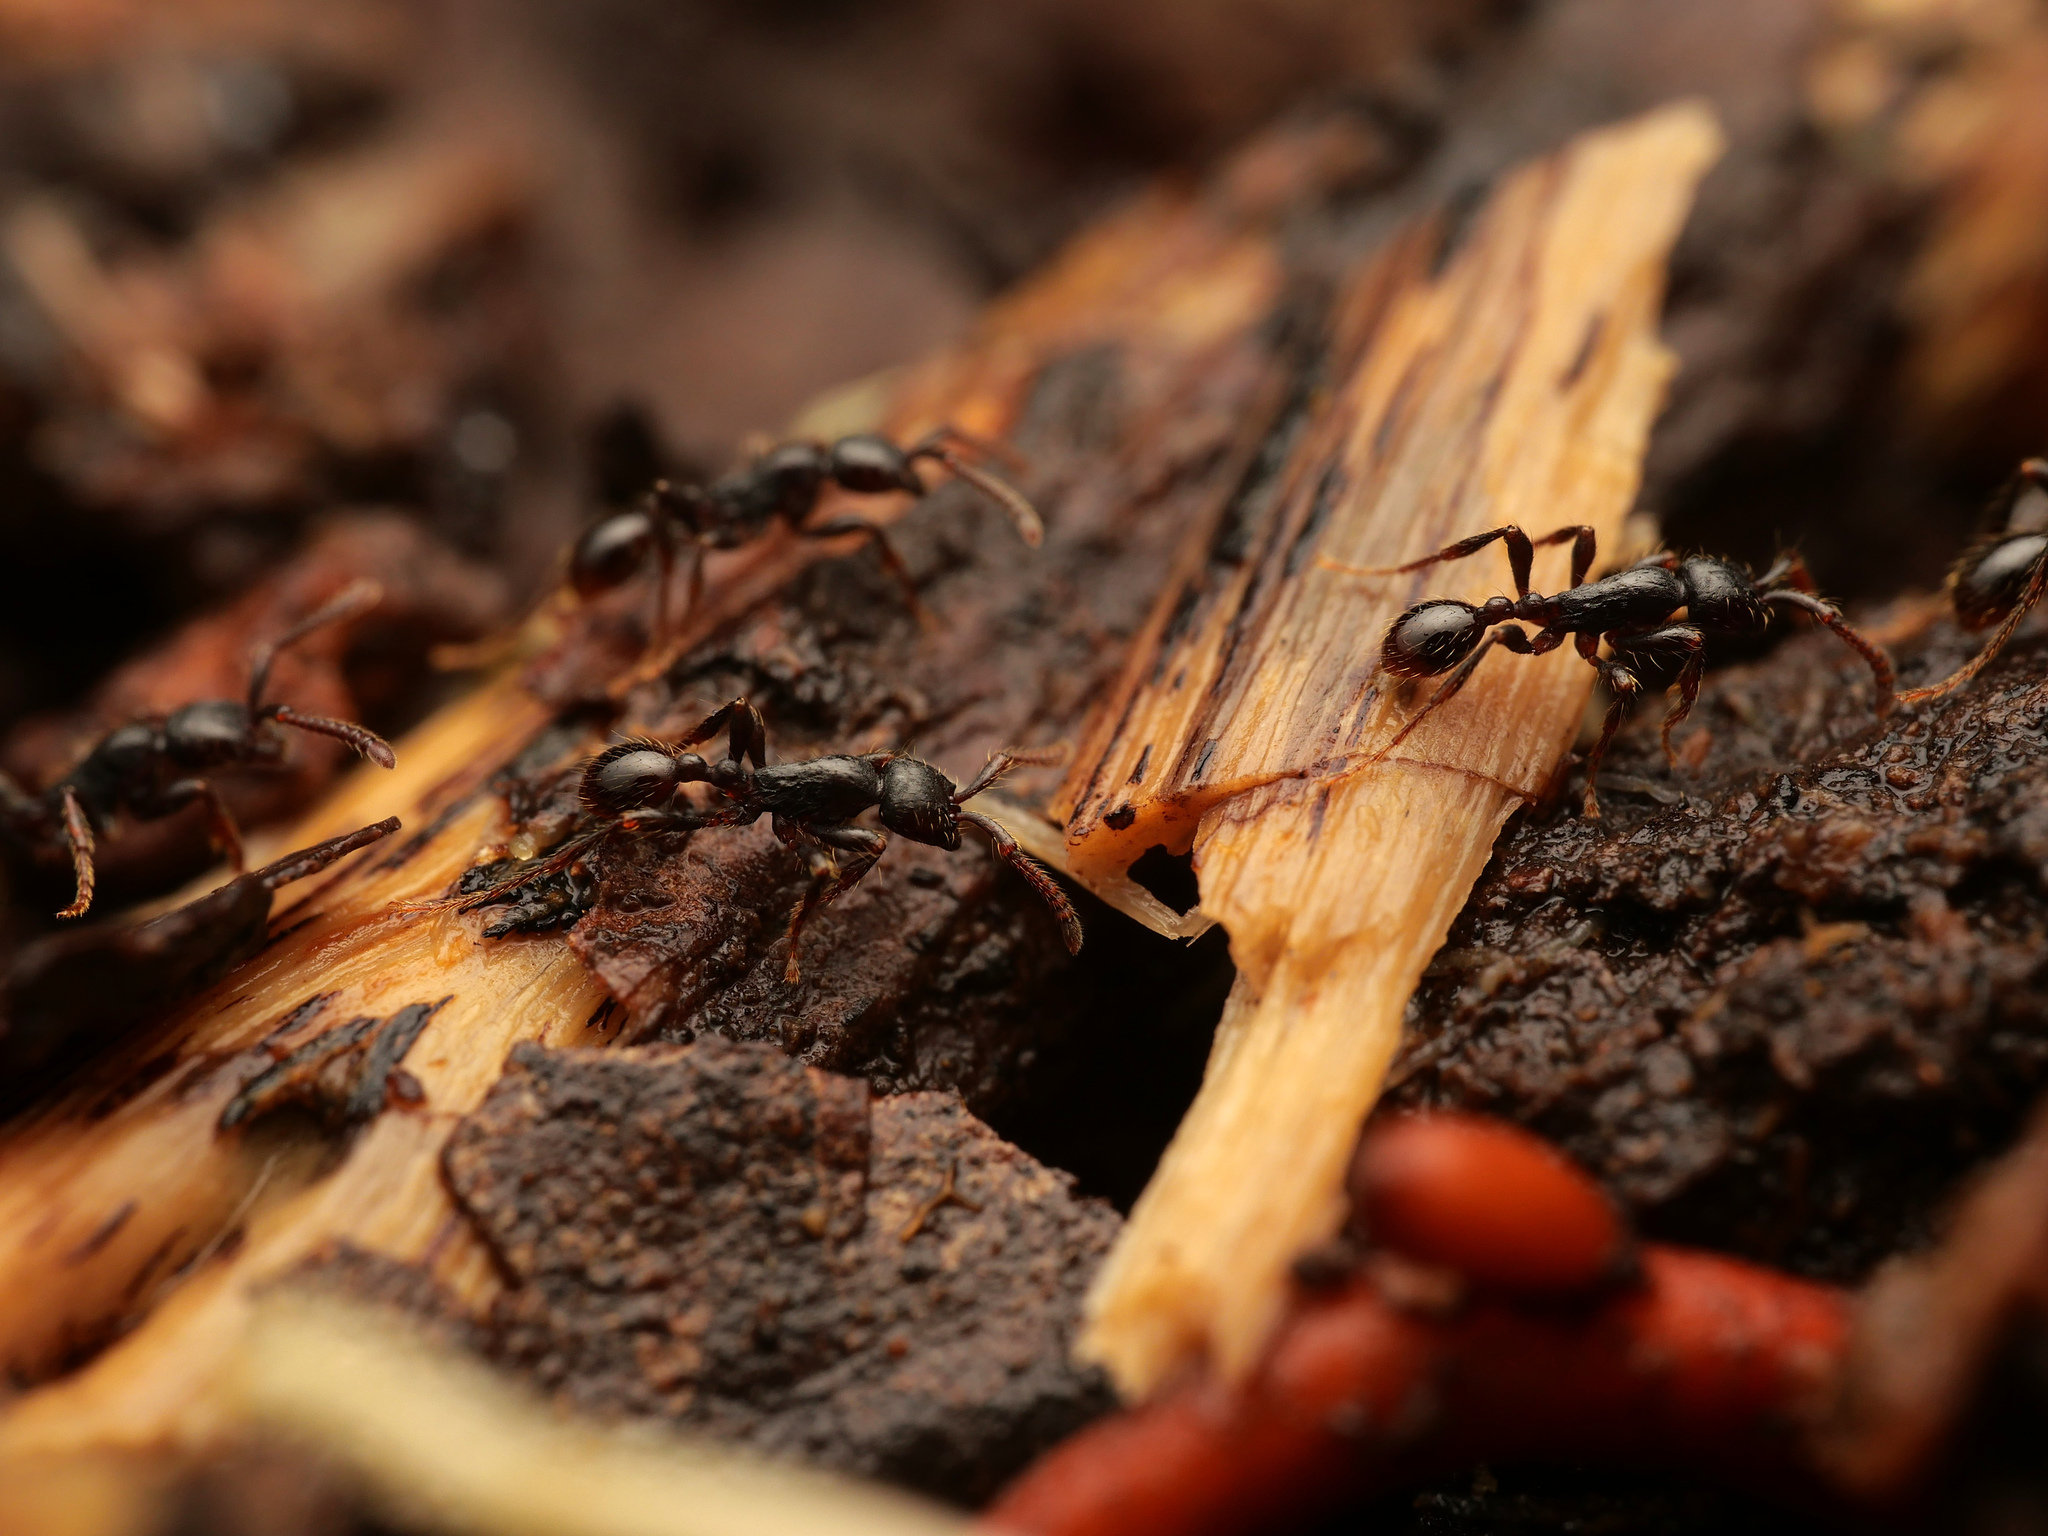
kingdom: Animalia
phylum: Arthropoda
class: Insecta
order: Hymenoptera
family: Formicidae
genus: Paratrechina
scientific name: Paratrechina fulva
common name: Tawny crazy ant
